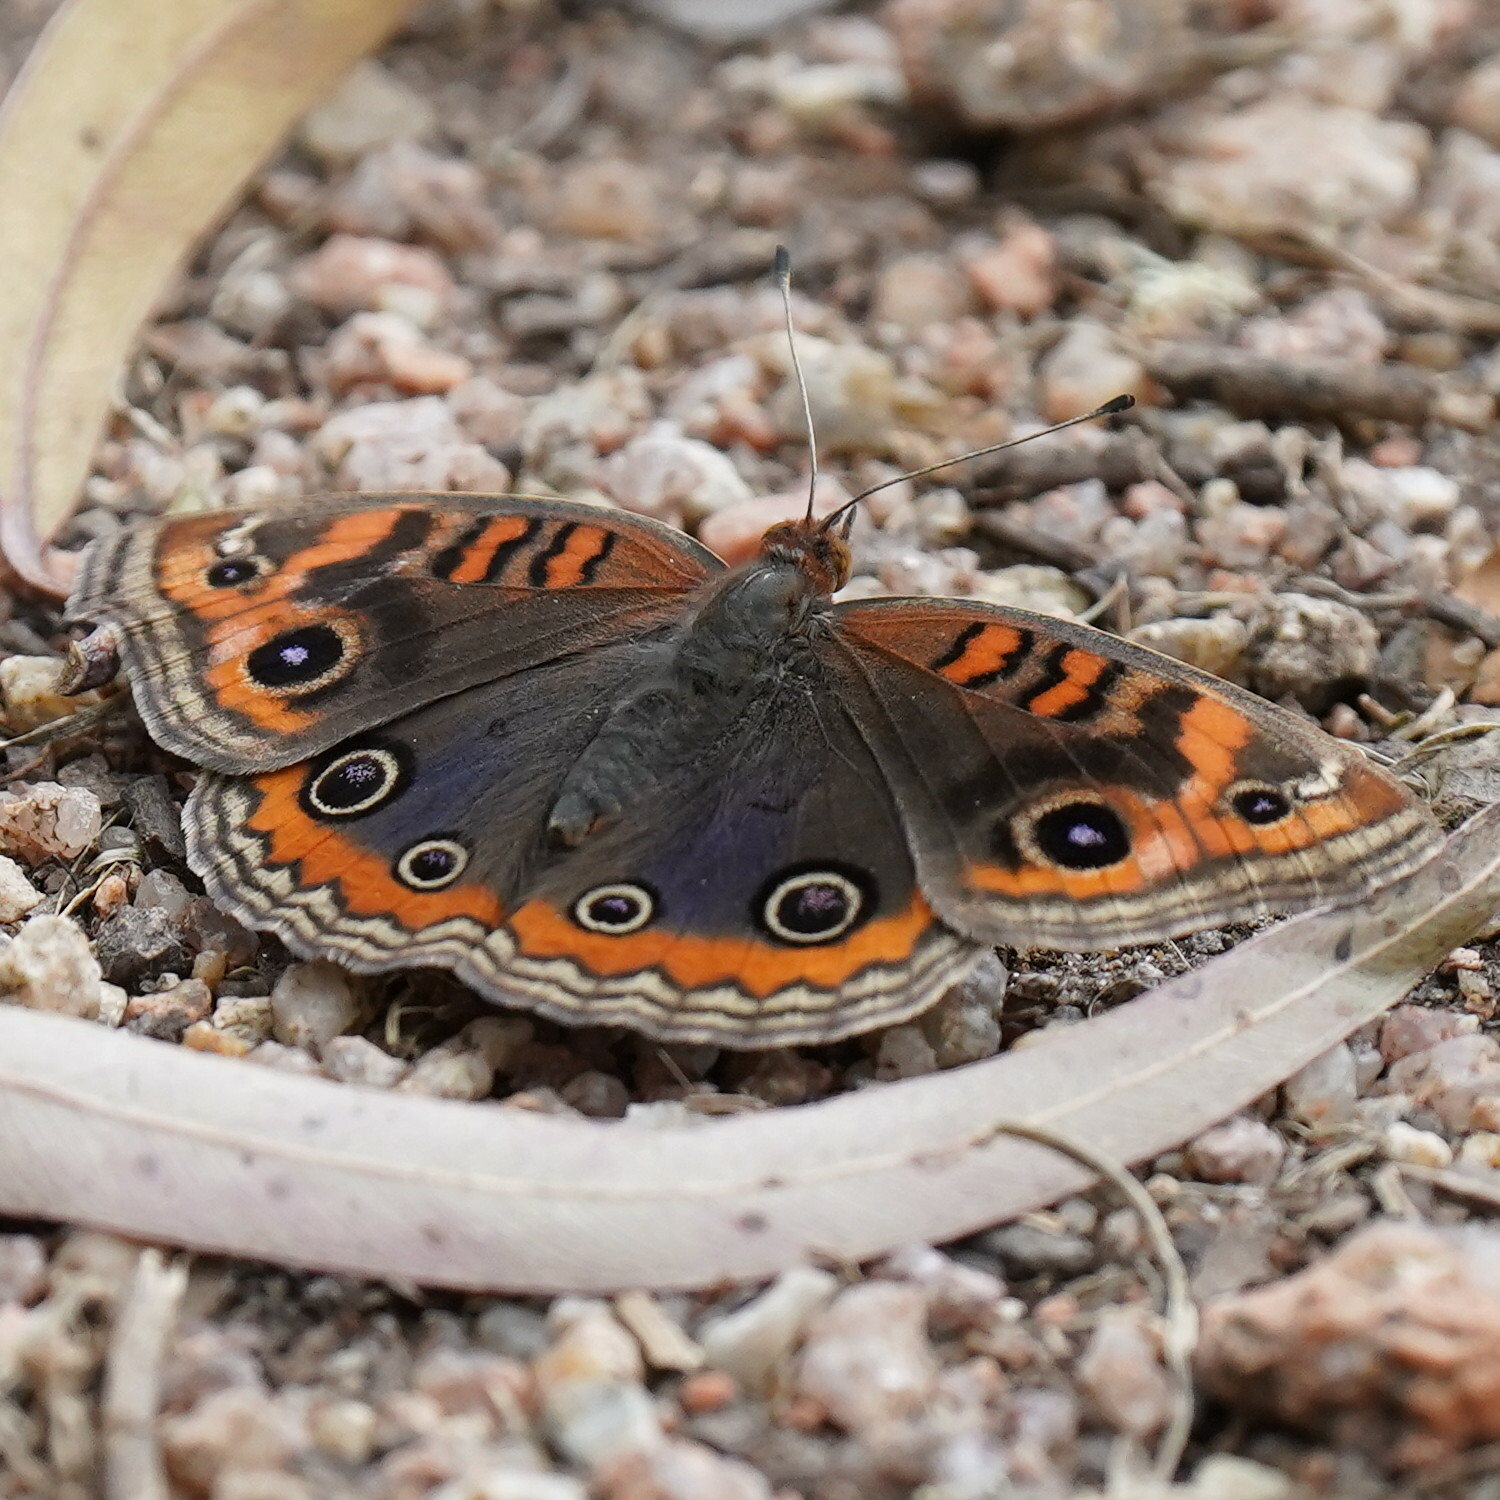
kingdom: Animalia
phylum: Arthropoda
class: Insecta
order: Lepidoptera
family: Nymphalidae
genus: Junonia
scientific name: Junonia evarete
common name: Black mangrove buckeye
